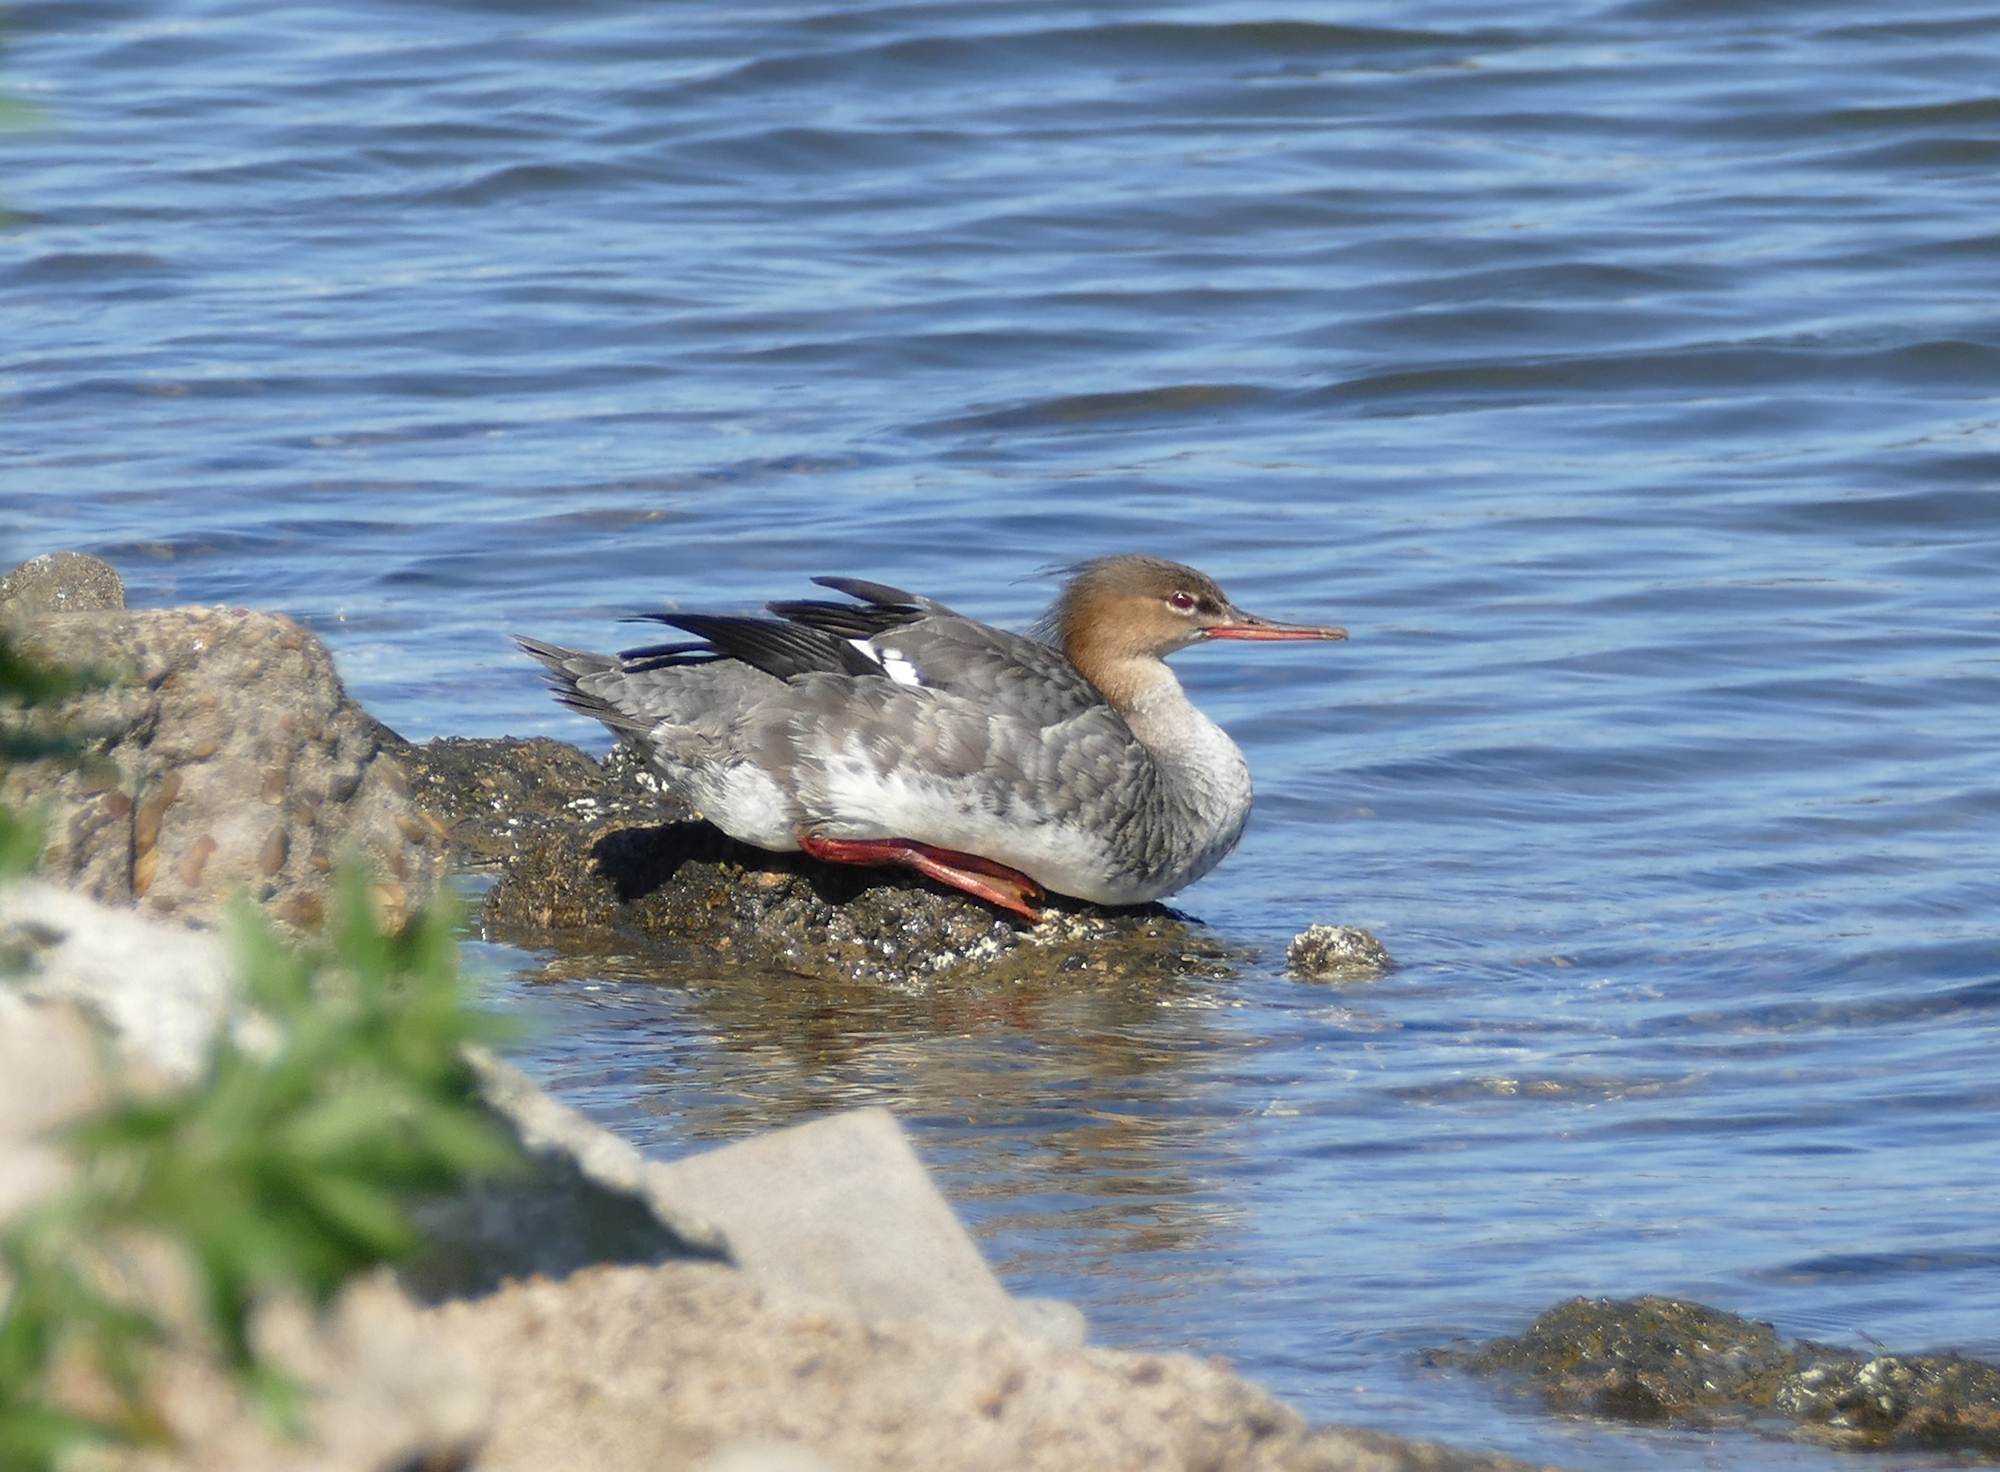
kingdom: Animalia
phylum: Chordata
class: Aves
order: Anseriformes
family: Anatidae
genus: Mergus
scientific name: Mergus serrator
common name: Red-breasted merganser
